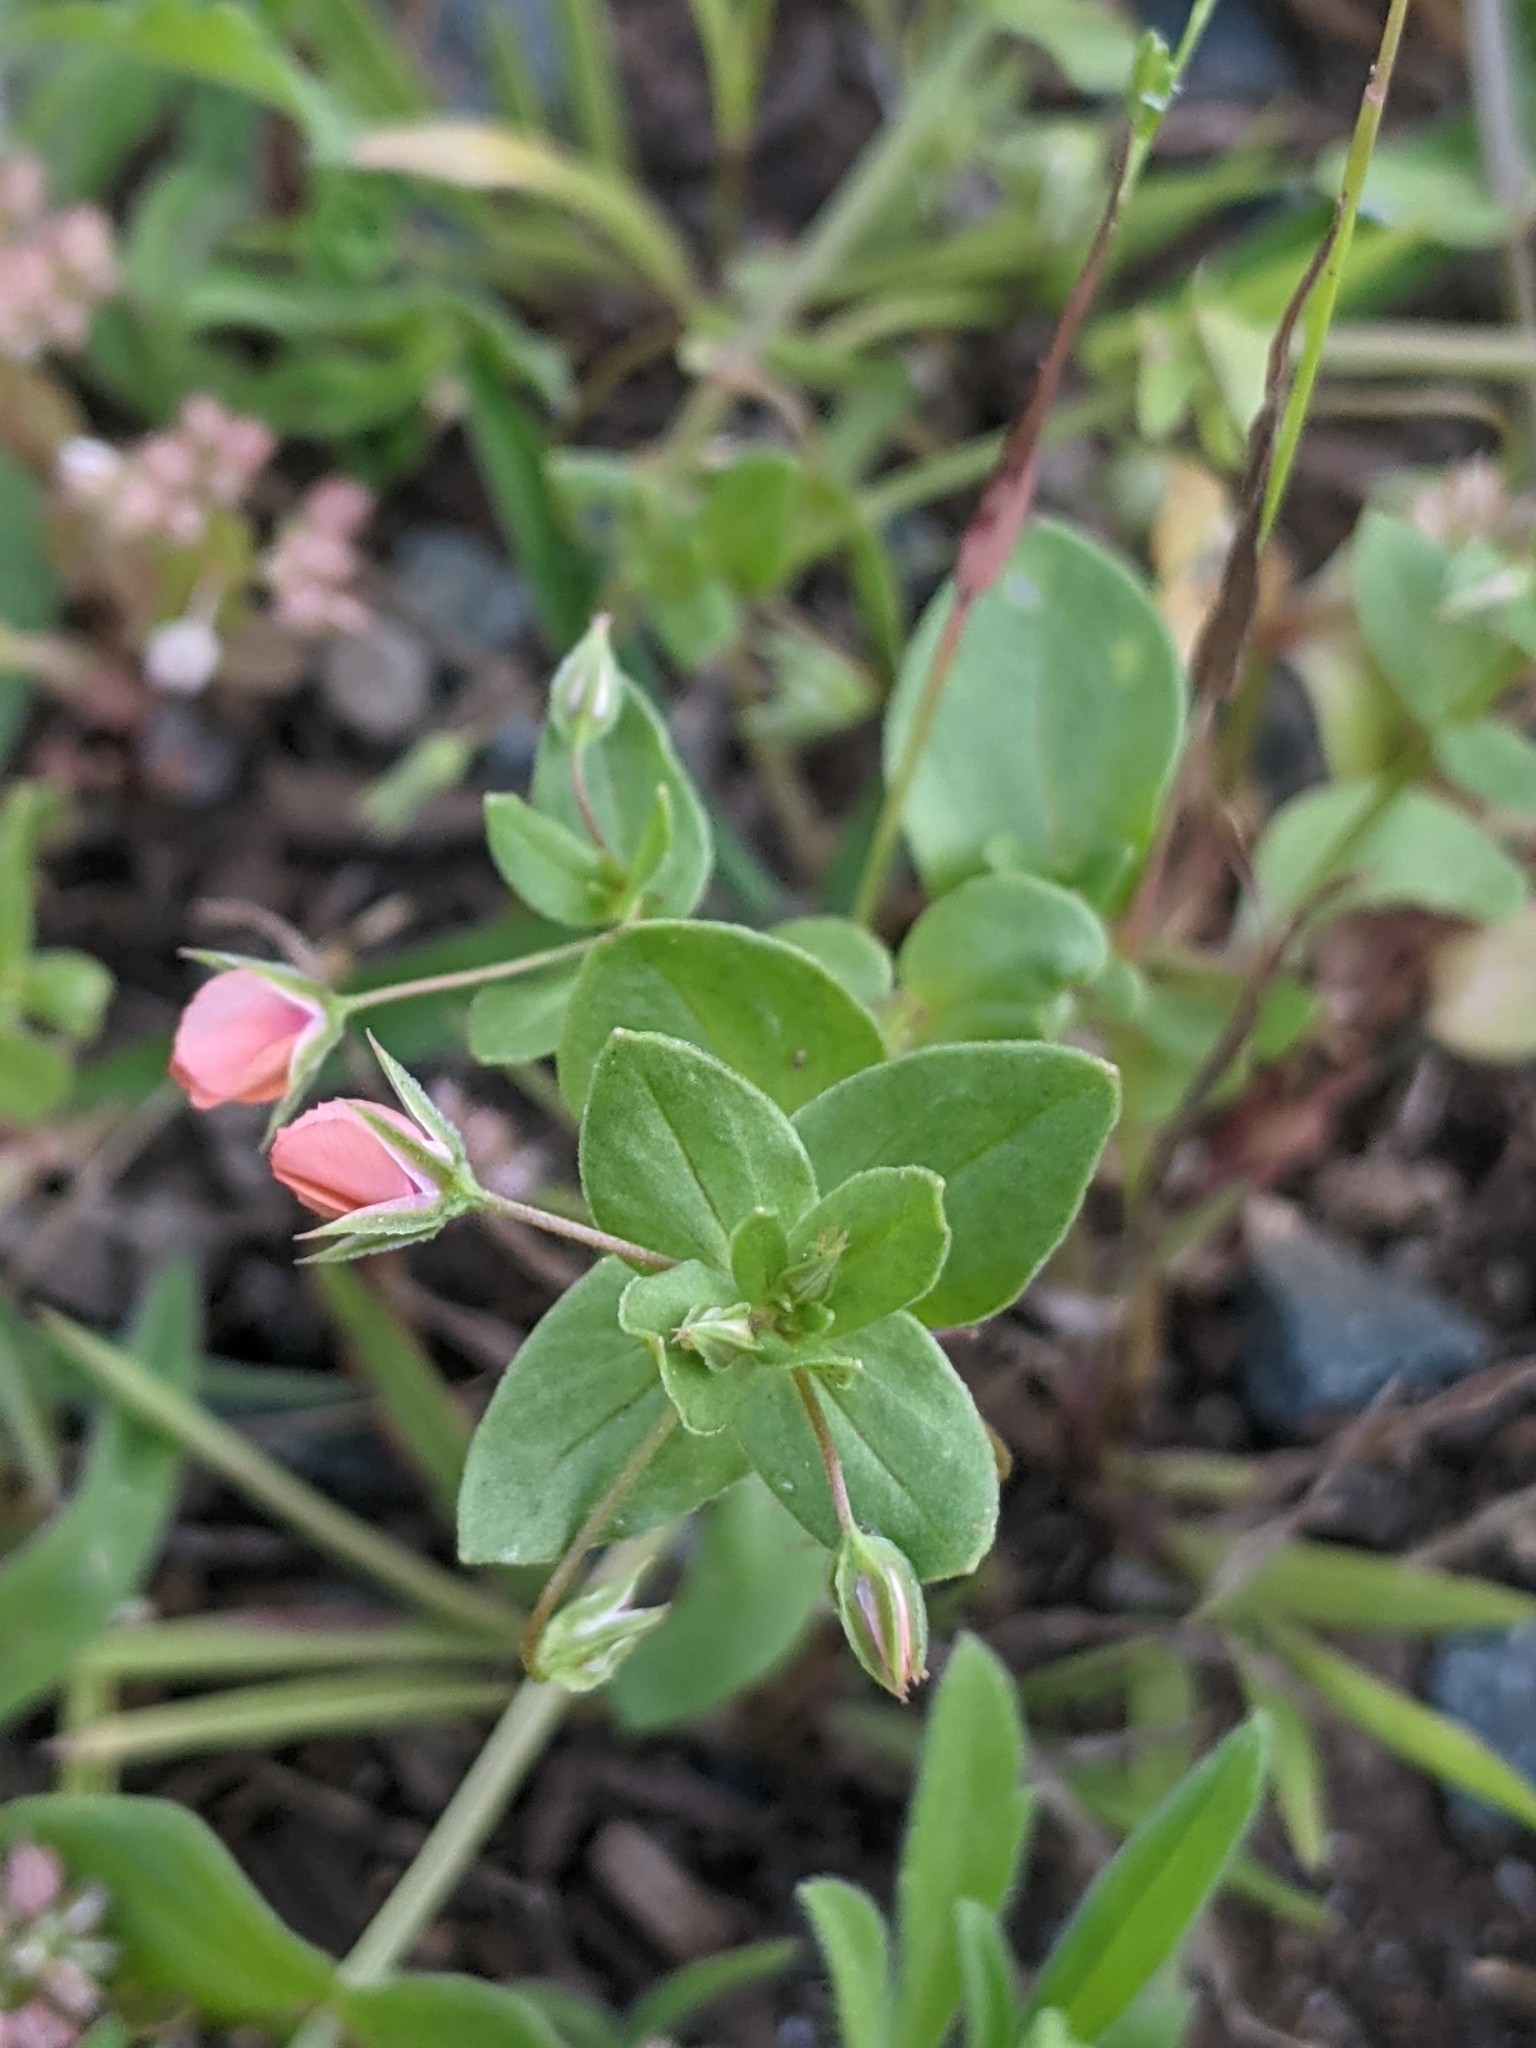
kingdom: Plantae
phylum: Tracheophyta
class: Magnoliopsida
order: Ericales
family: Primulaceae
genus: Lysimachia
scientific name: Lysimachia arvensis
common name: Scarlet pimpernel
